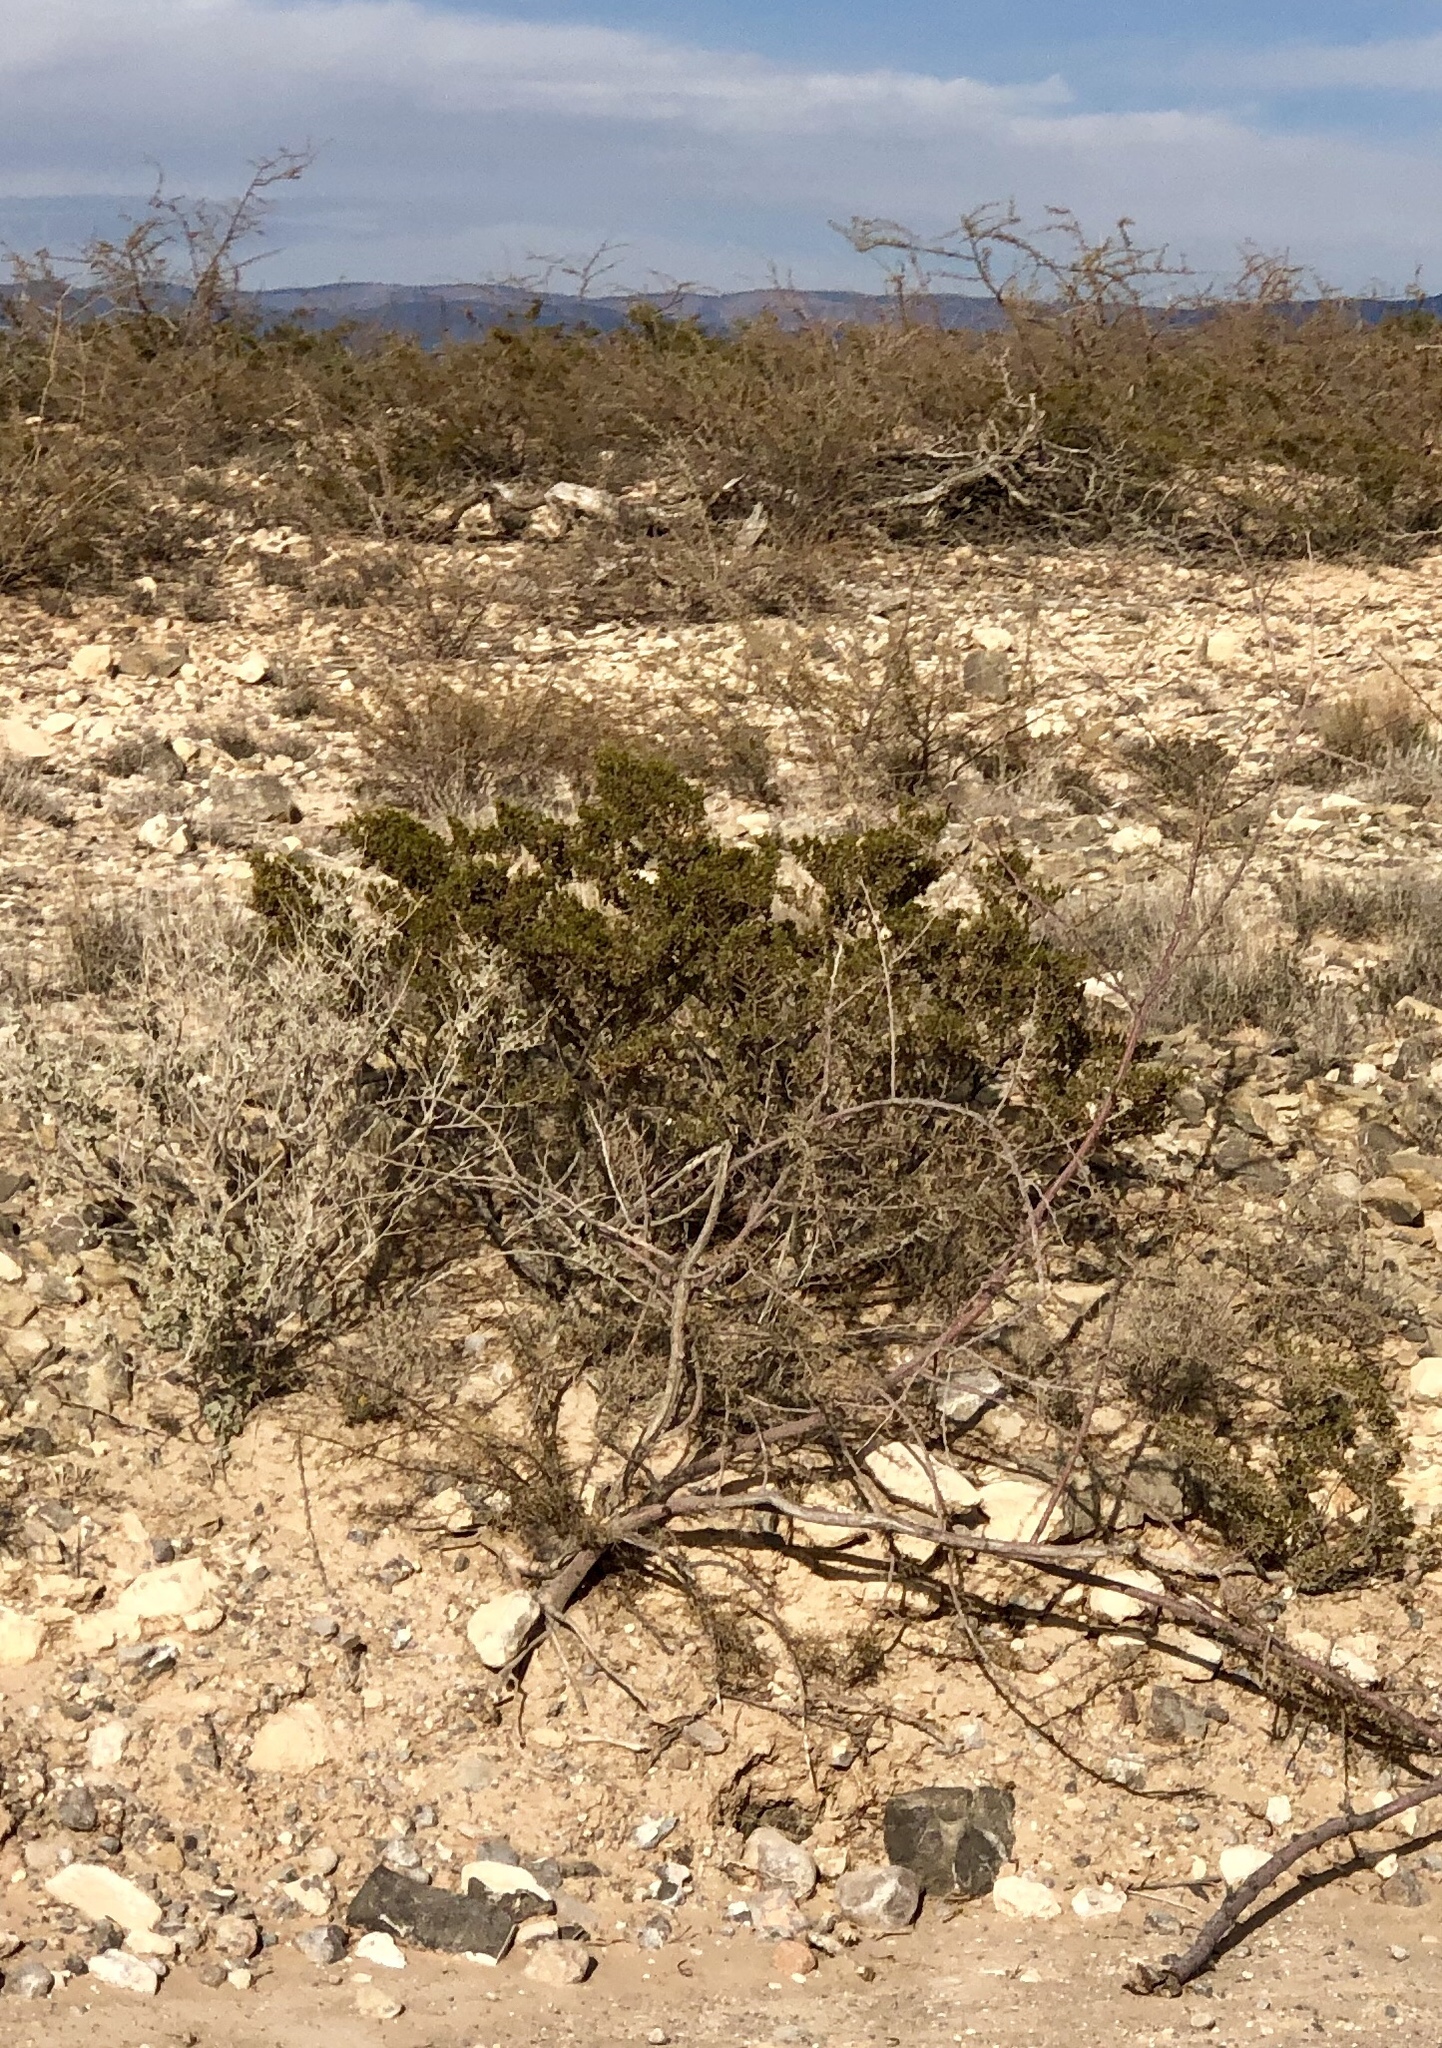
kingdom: Plantae
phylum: Tracheophyta
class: Magnoliopsida
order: Zygophyllales
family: Zygophyllaceae
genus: Larrea
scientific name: Larrea tridentata
